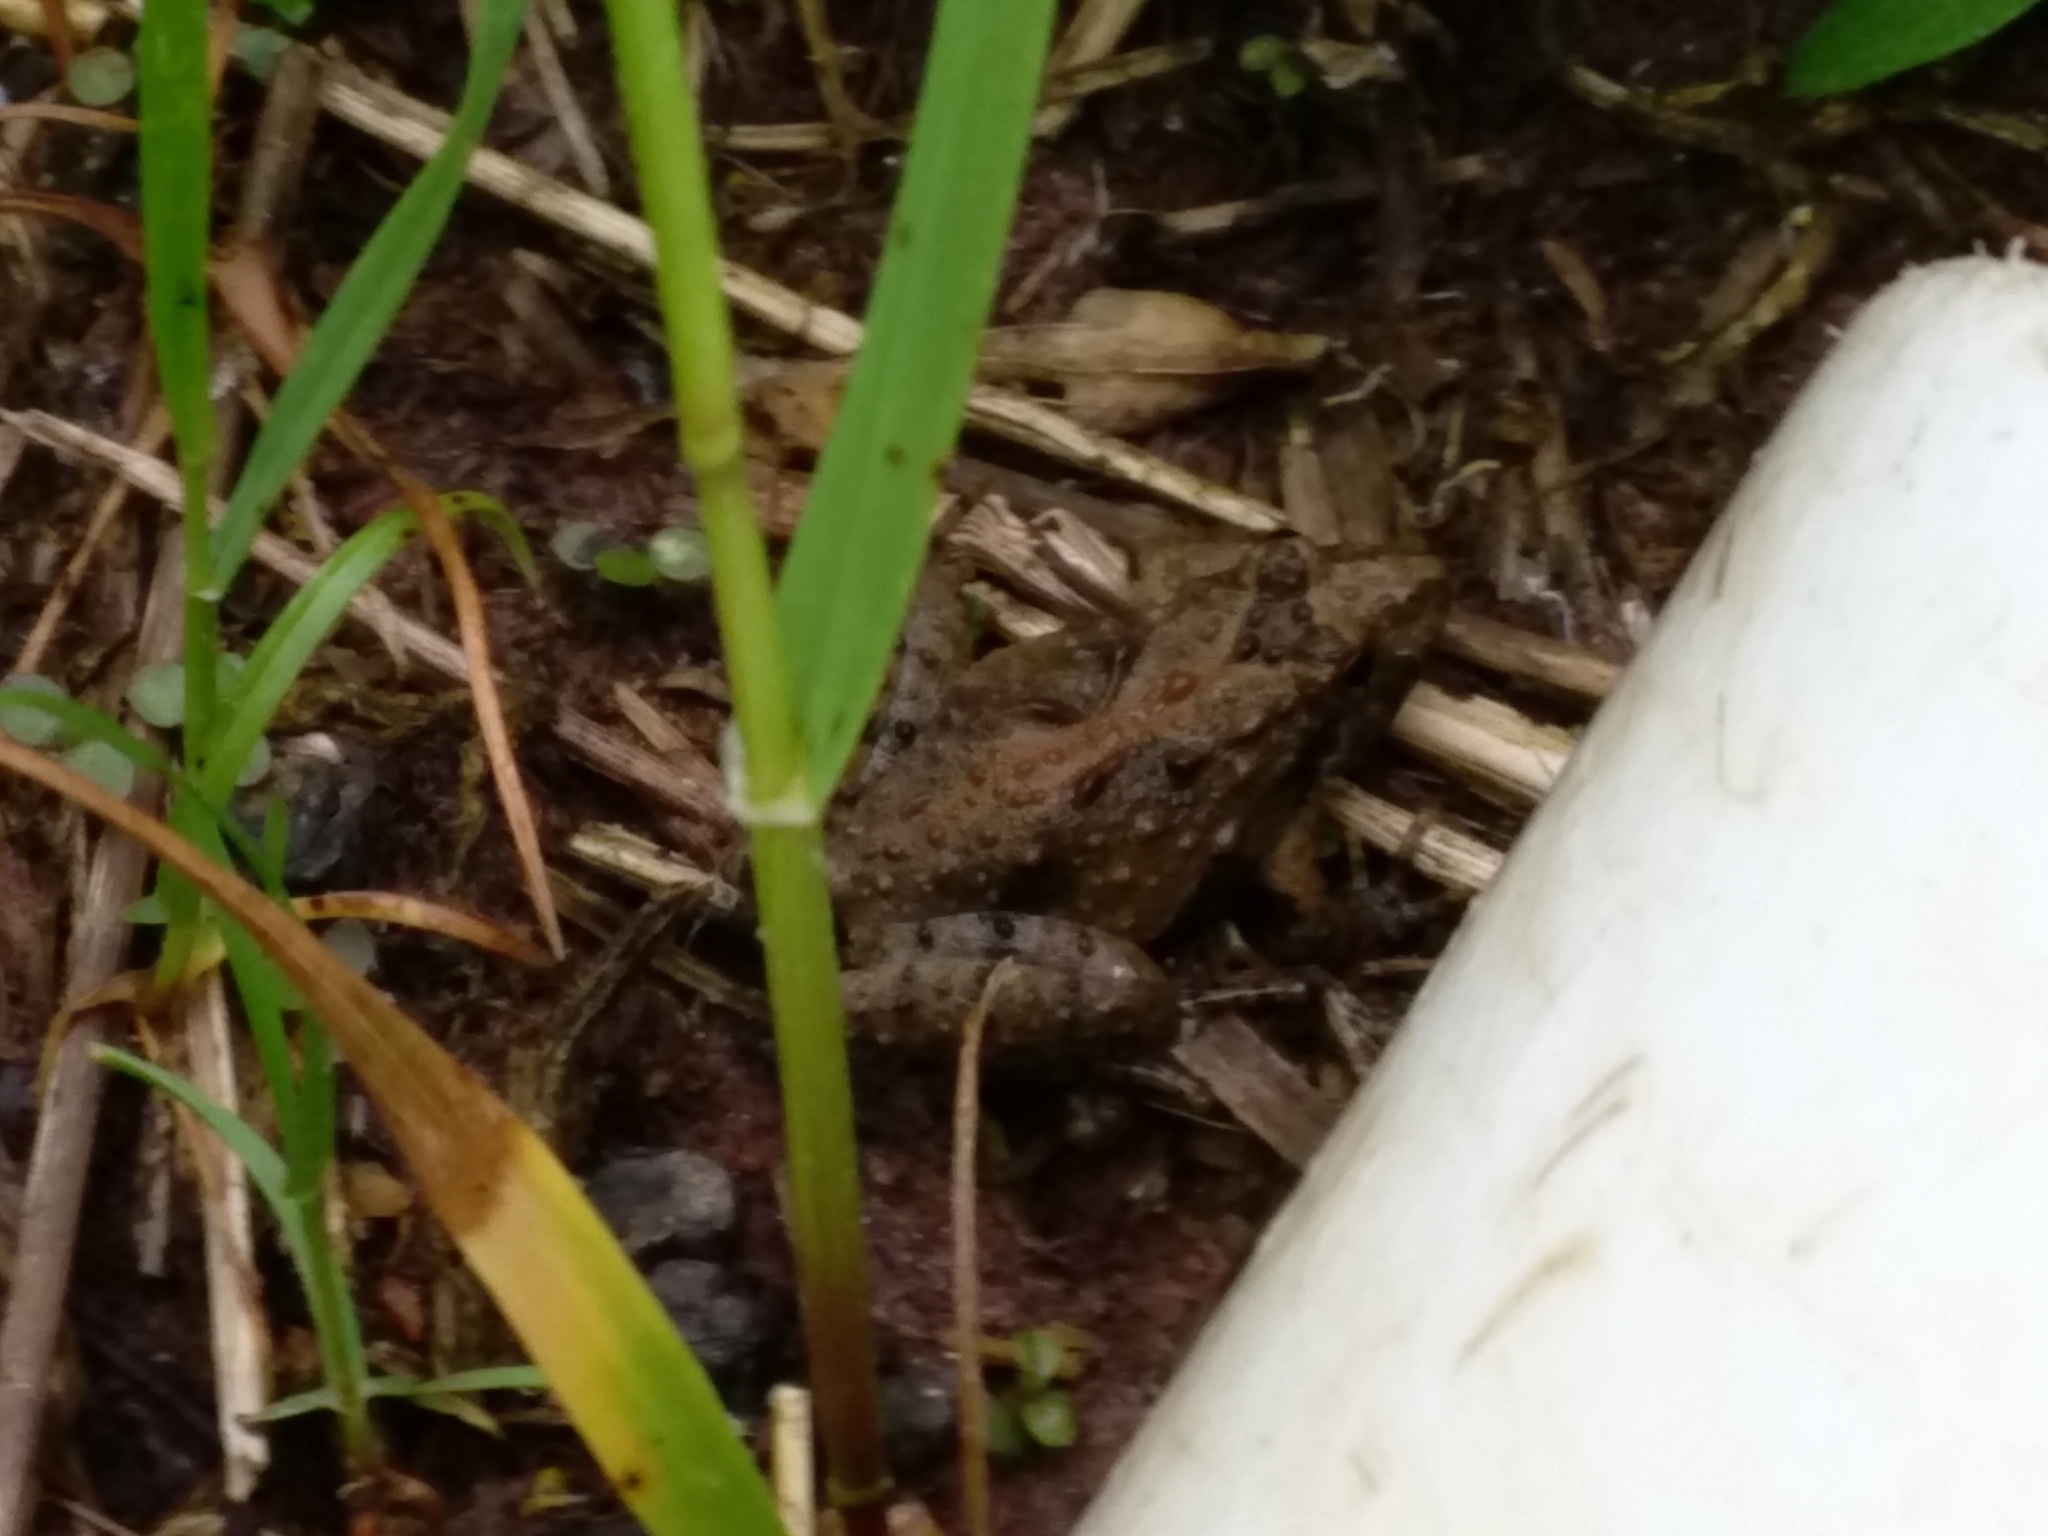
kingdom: Animalia
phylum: Chordata
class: Amphibia
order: Anura
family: Hylidae
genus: Acris
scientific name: Acris crepitans
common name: Northern cricket frog
